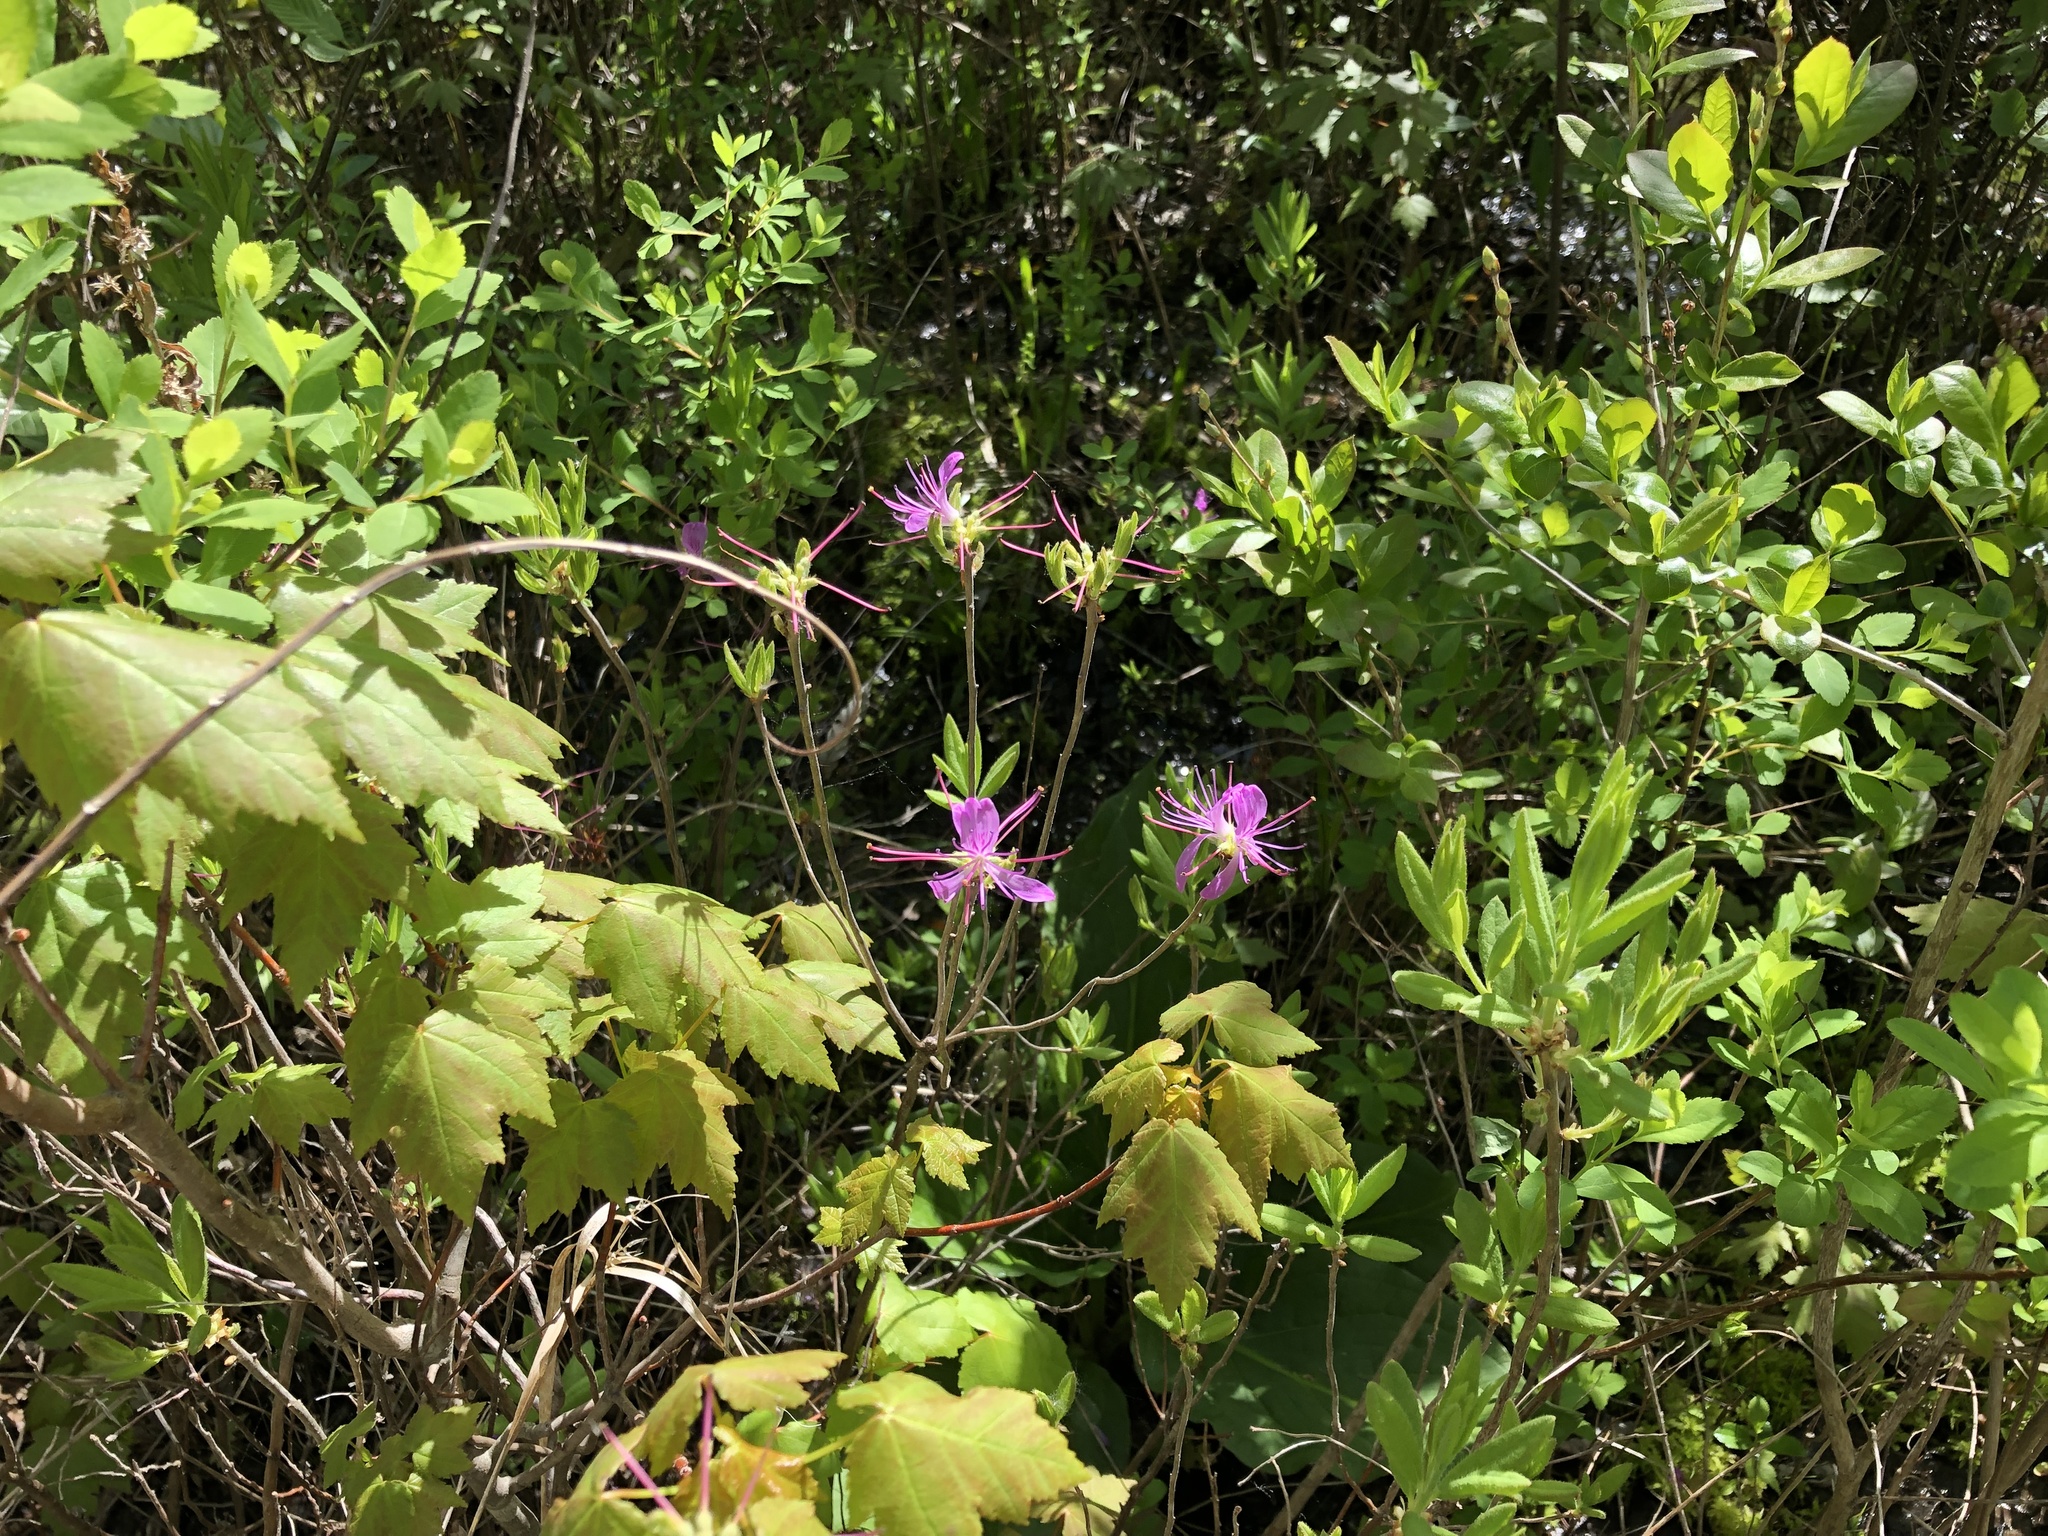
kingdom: Plantae
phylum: Tracheophyta
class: Magnoliopsida
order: Ericales
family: Ericaceae
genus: Rhododendron
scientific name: Rhododendron canadense
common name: Rhodora
